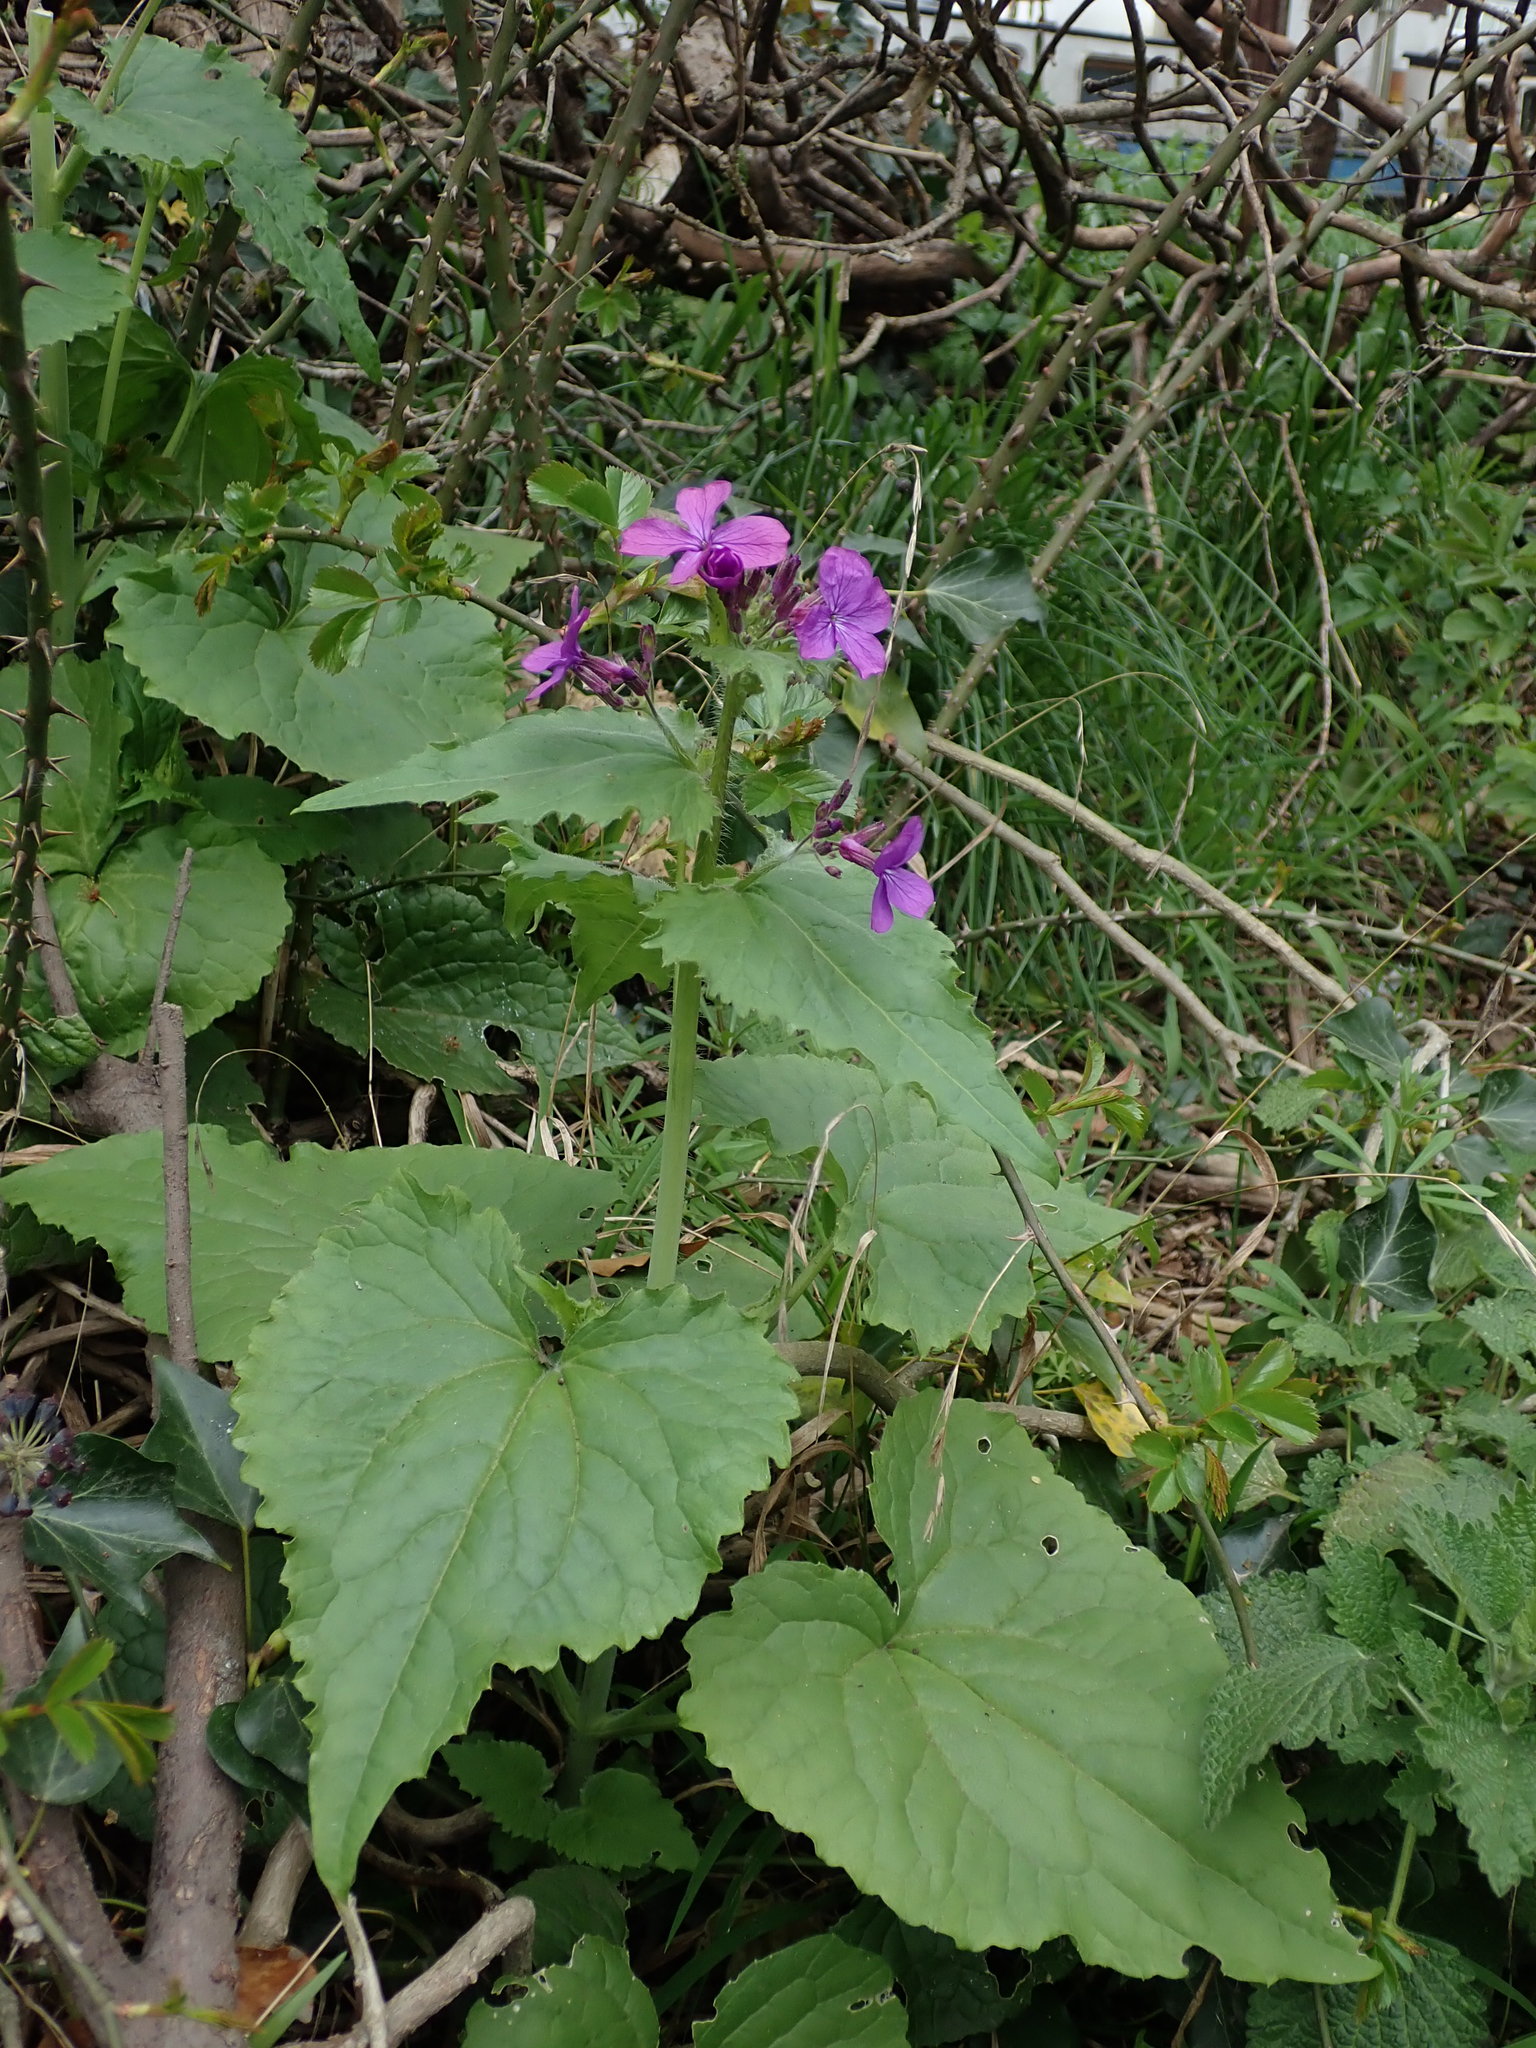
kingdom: Plantae
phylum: Tracheophyta
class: Magnoliopsida
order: Brassicales
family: Brassicaceae
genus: Lunaria
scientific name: Lunaria annua
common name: Honesty
